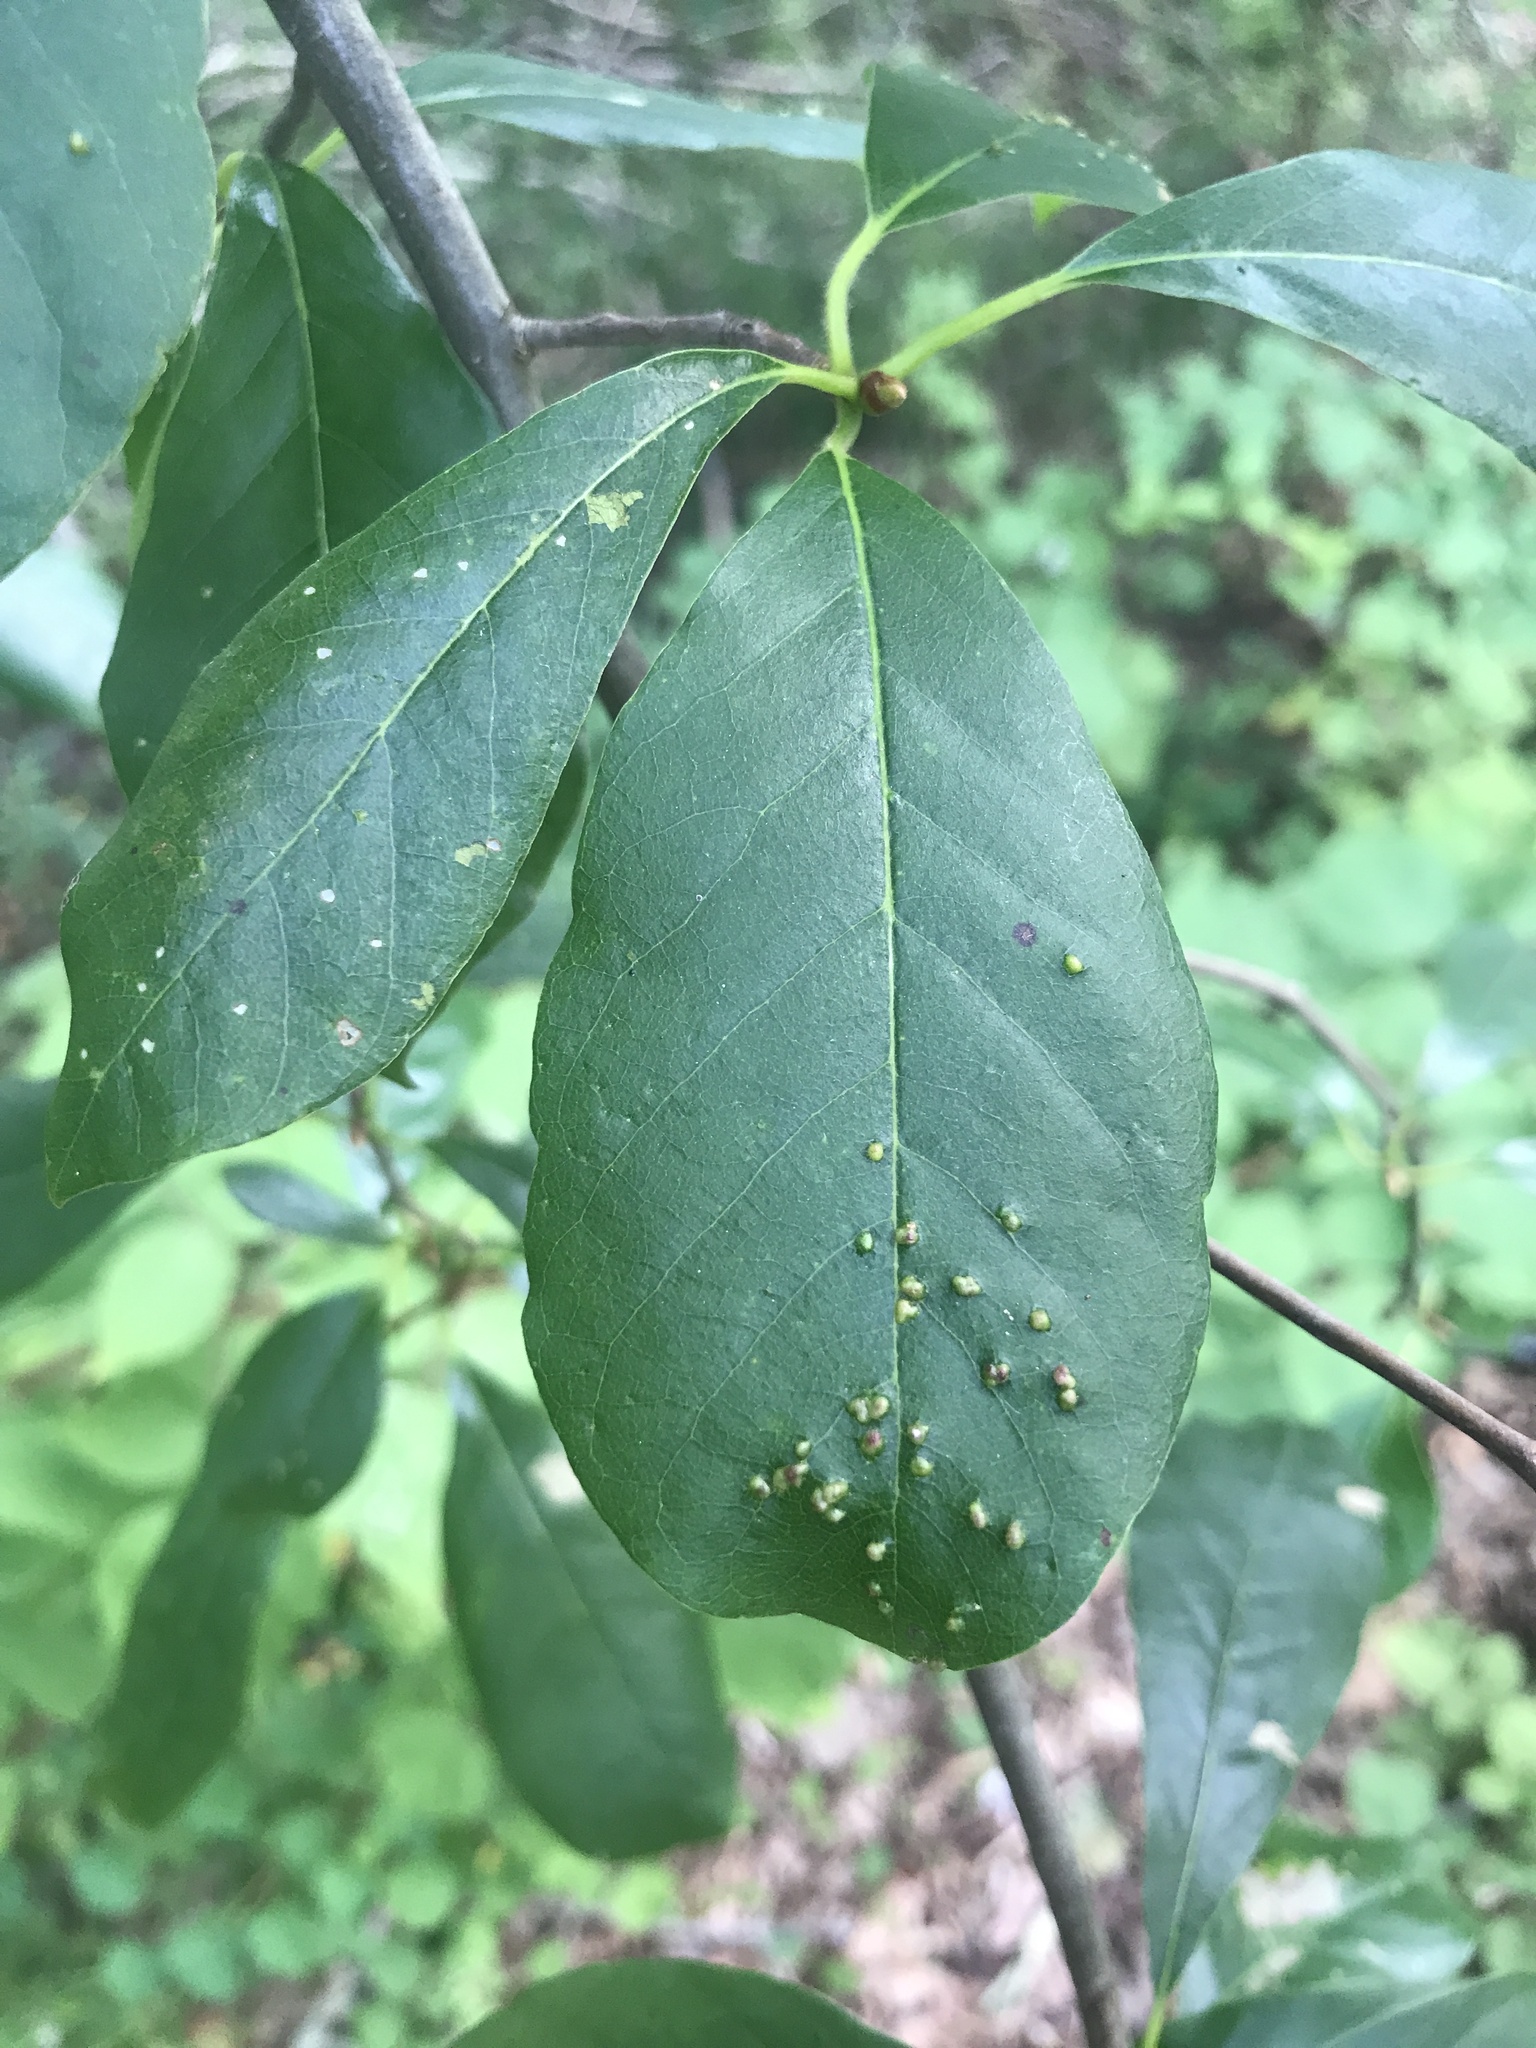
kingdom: Animalia
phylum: Arthropoda
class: Arachnida
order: Trombidiformes
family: Eriophyidae
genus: Aceria
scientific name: Aceria
